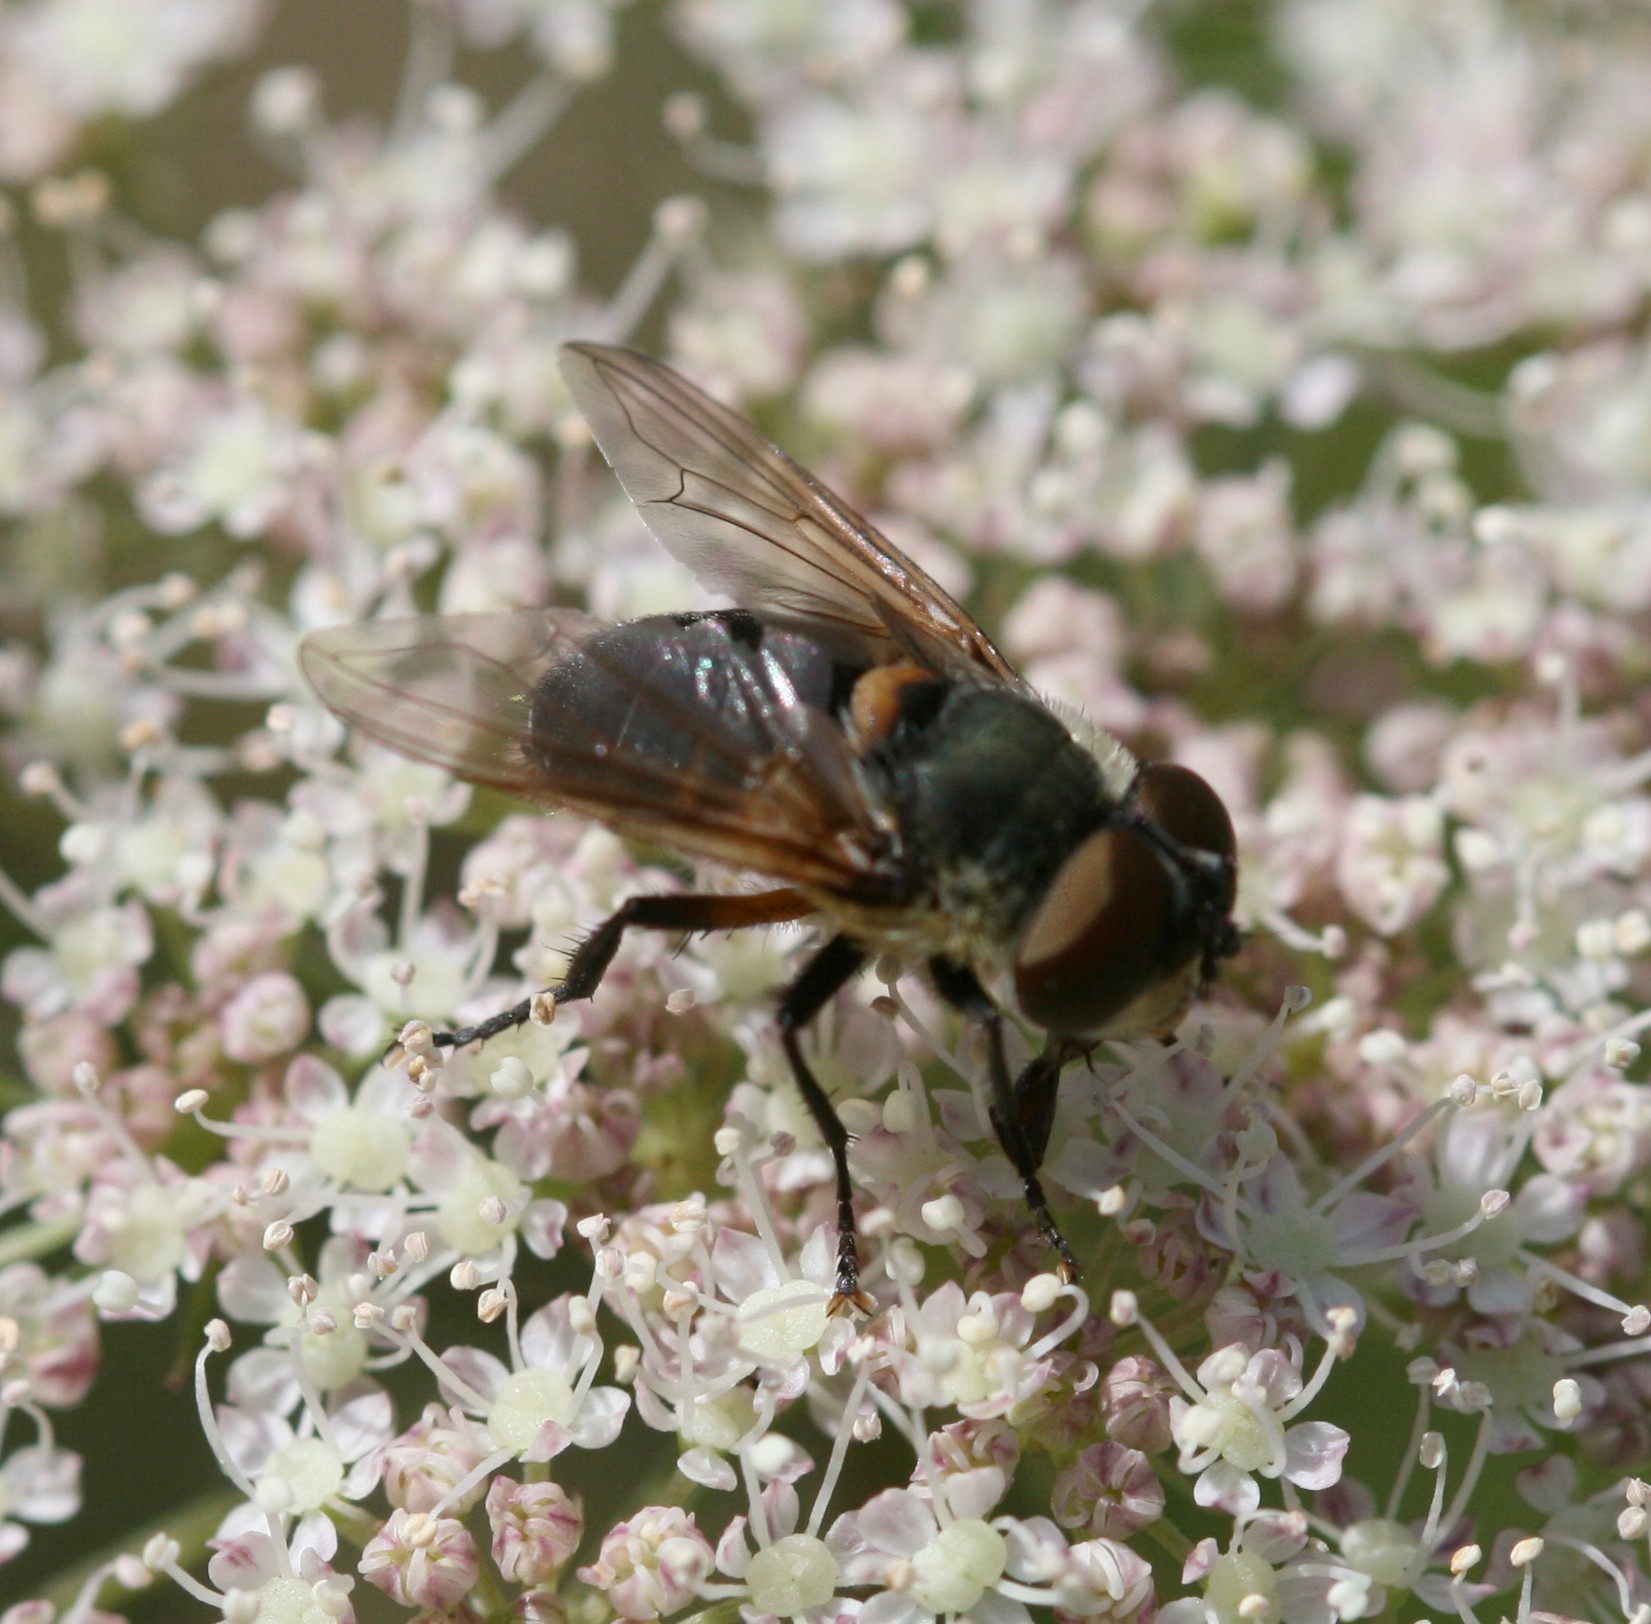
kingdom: Animalia
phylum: Arthropoda
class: Insecta
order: Diptera
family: Tachinidae
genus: Phasia
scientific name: Phasia hemiptera
